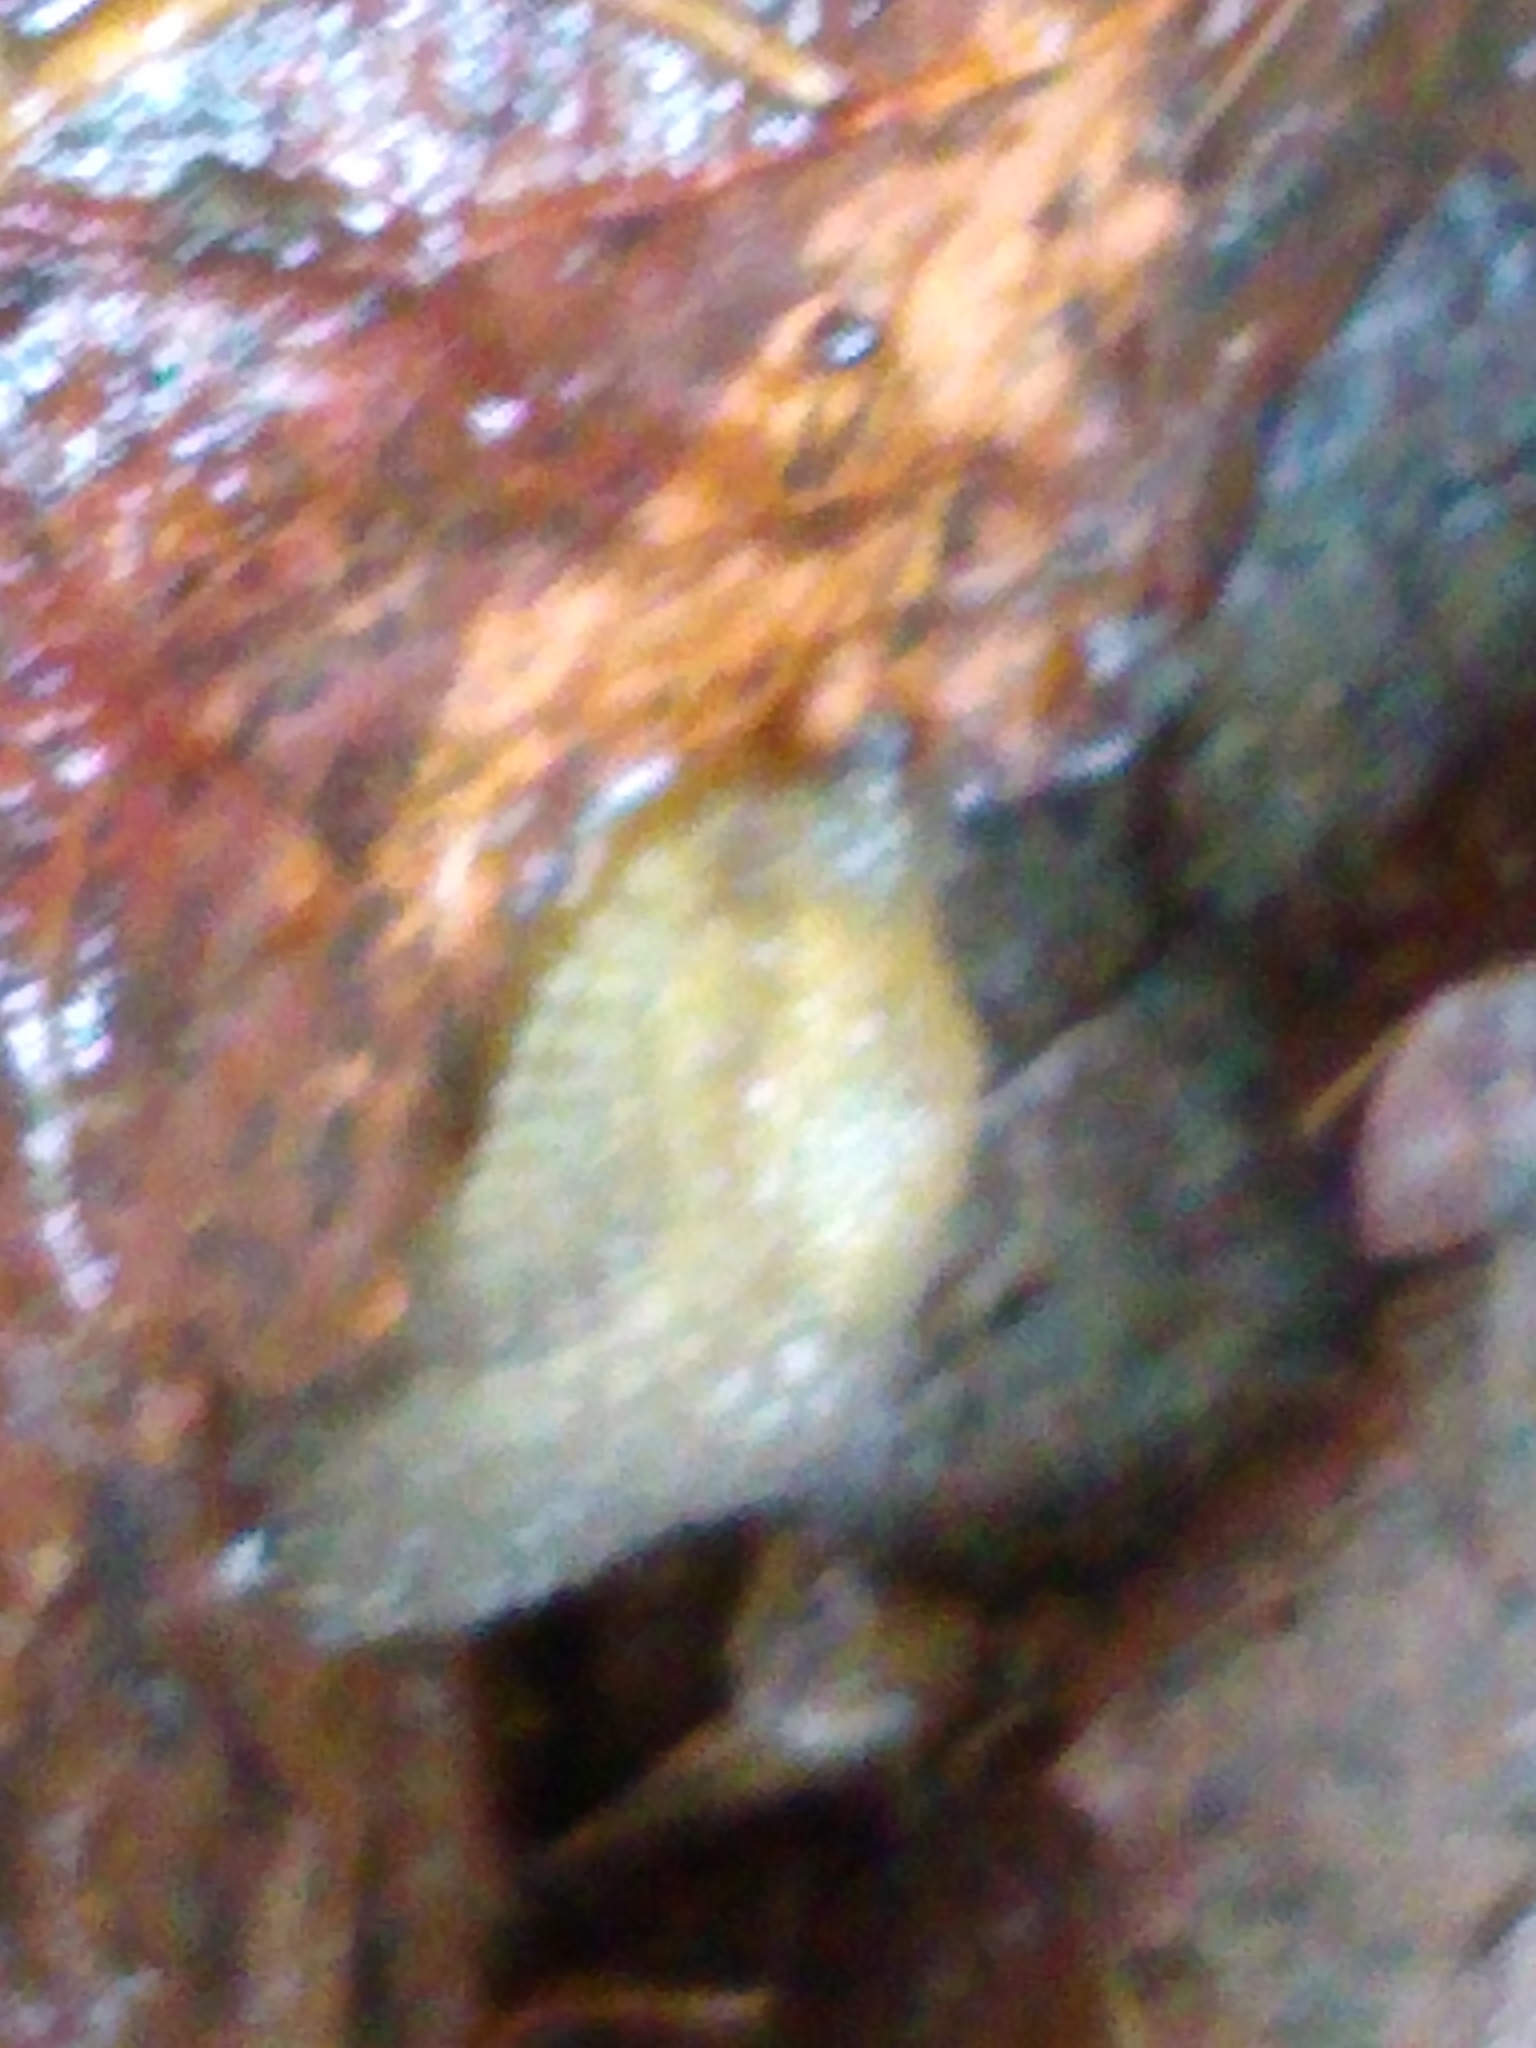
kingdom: Animalia
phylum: Mollusca
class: Gastropoda
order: Stylommatophora
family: Arionidae
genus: Arion
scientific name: Arion intermedius
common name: Hedgehog slug
